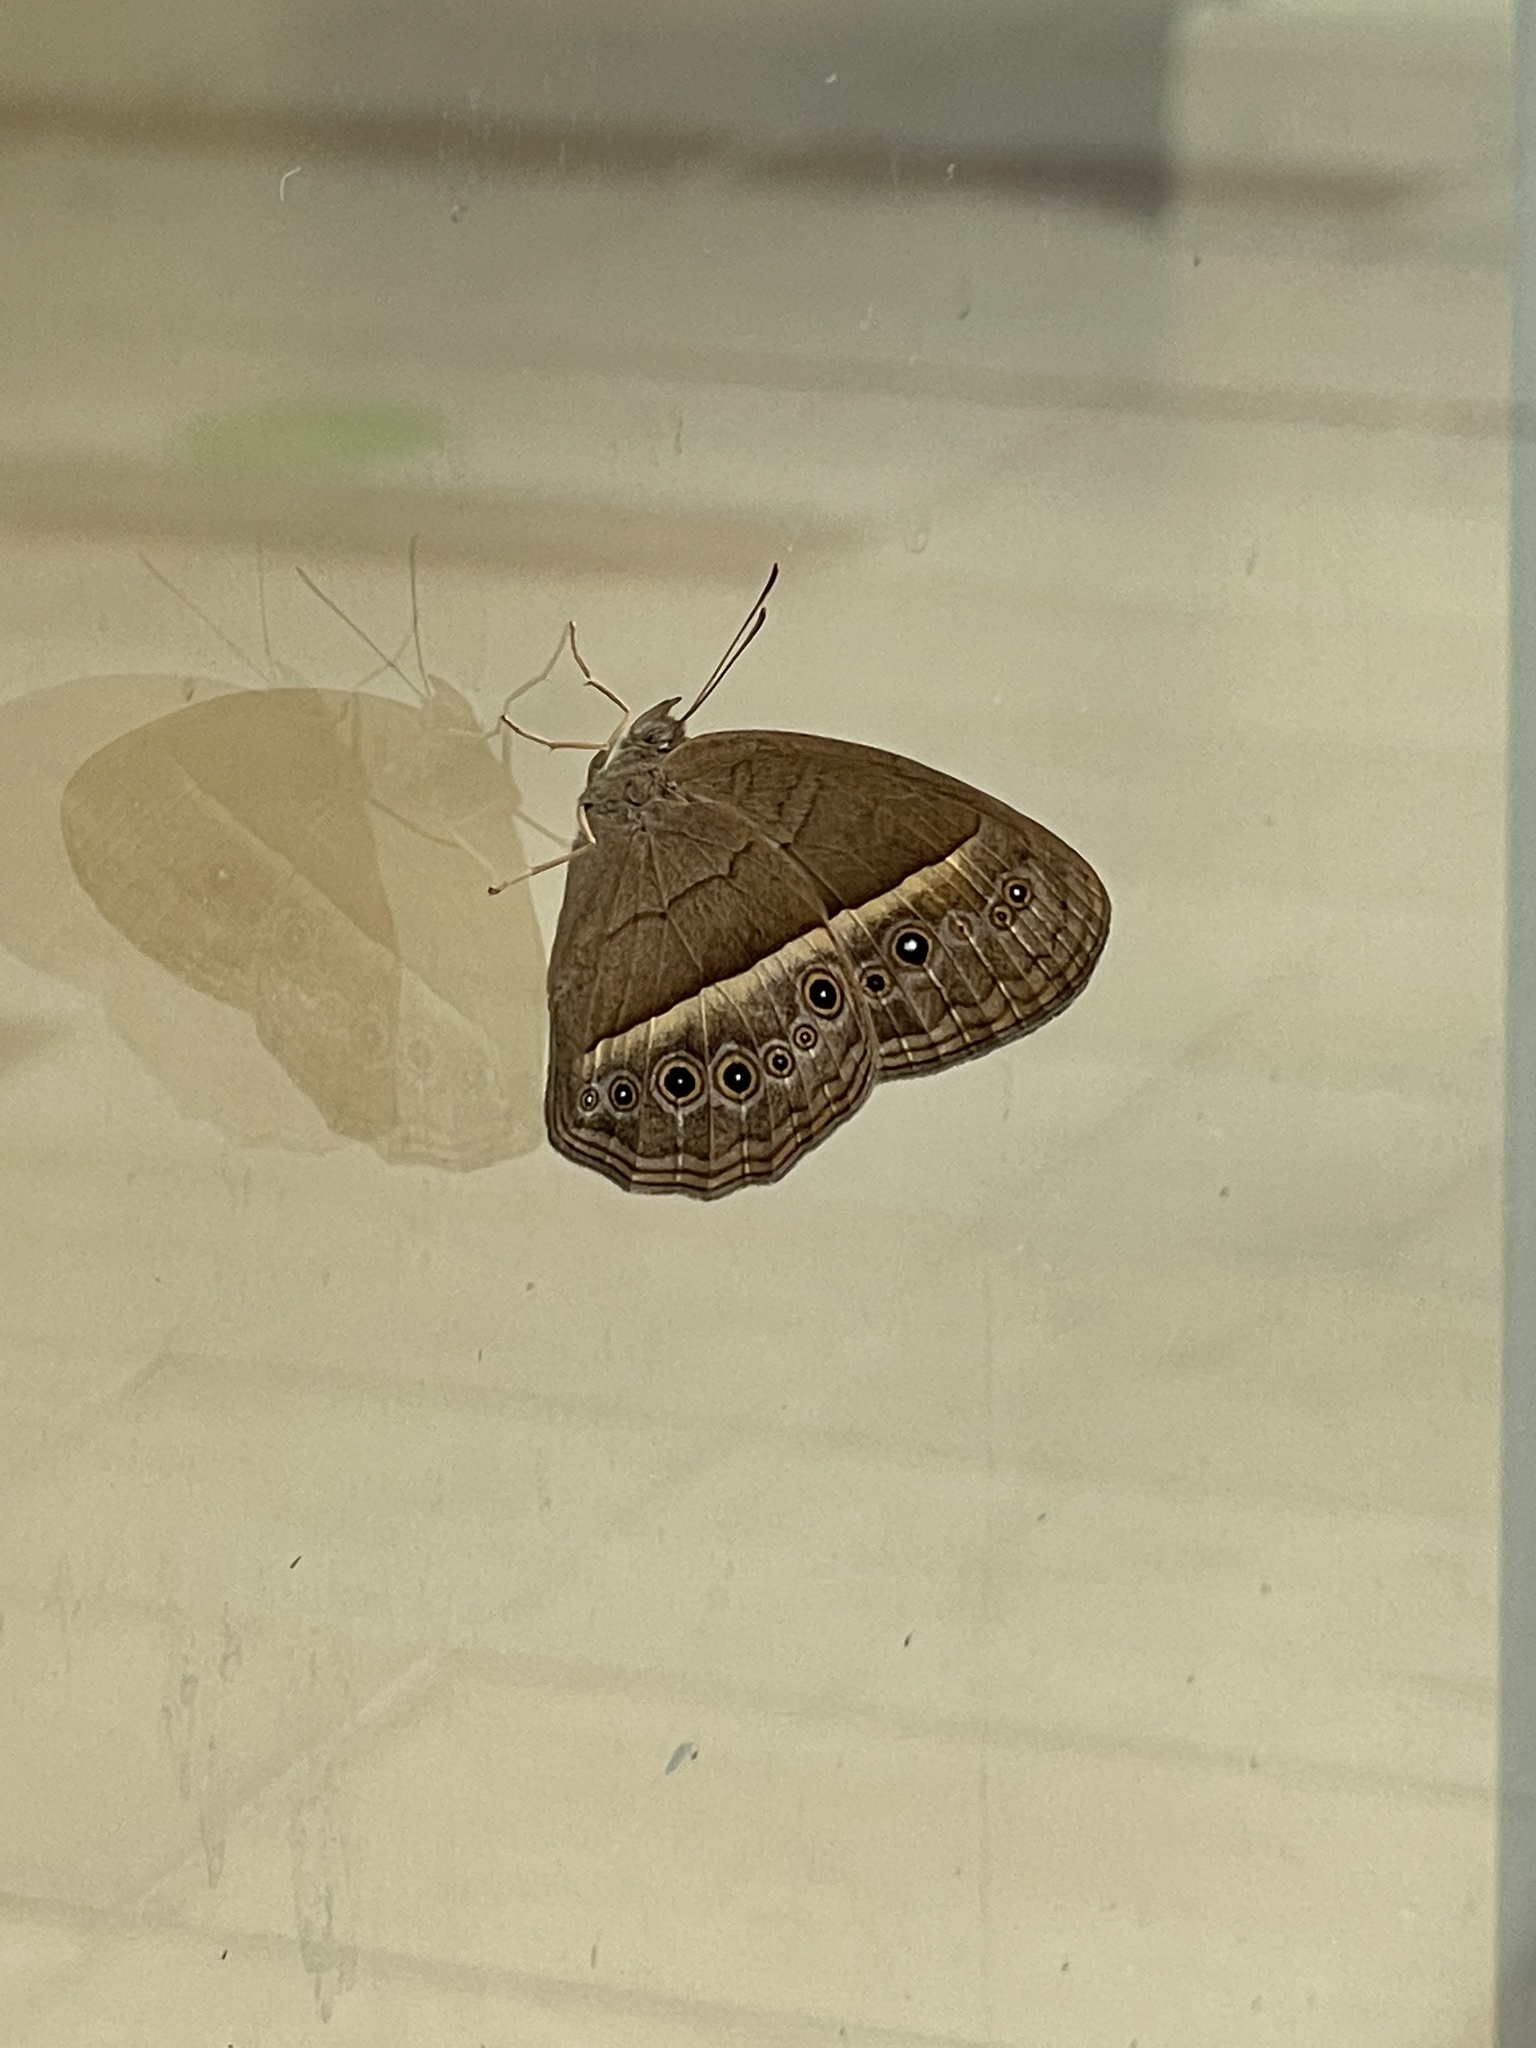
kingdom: Animalia
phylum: Arthropoda
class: Insecta
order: Lepidoptera
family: Nymphalidae
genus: Mycalesis
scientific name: Mycalesis mineus
